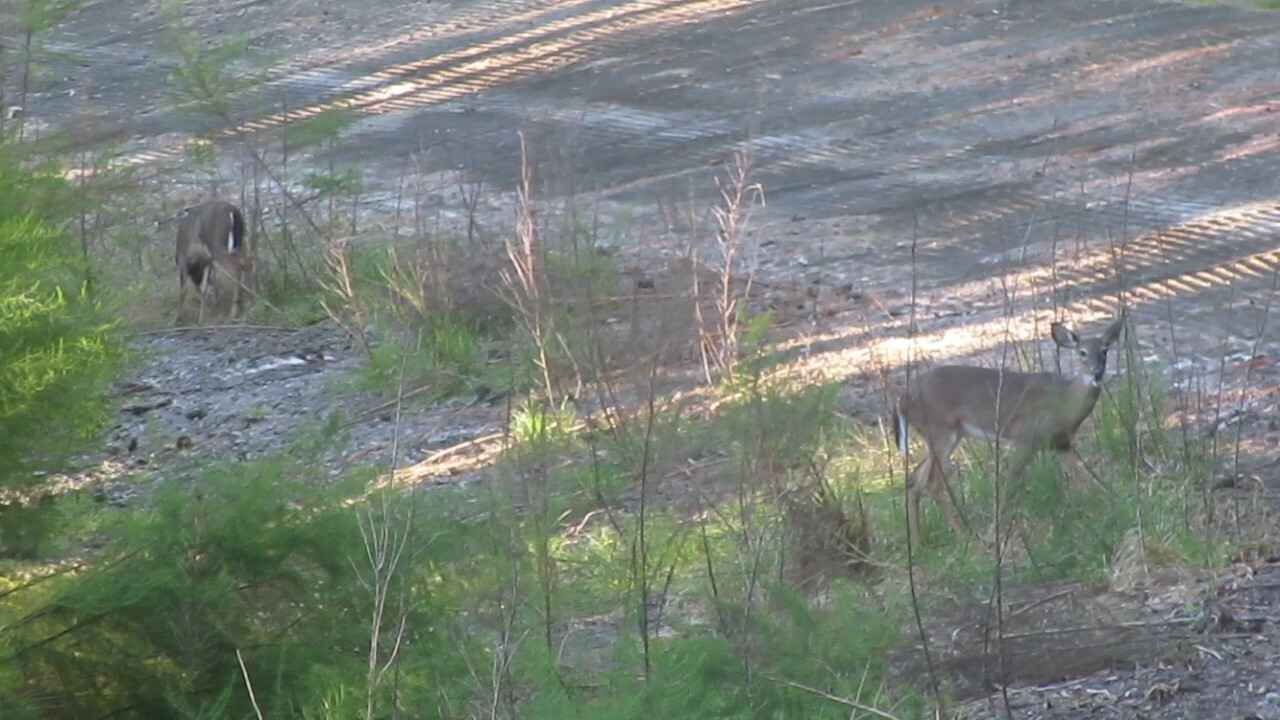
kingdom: Animalia
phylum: Chordata
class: Mammalia
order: Artiodactyla
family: Cervidae
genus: Odocoileus
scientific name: Odocoileus virginianus
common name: White-tailed deer
